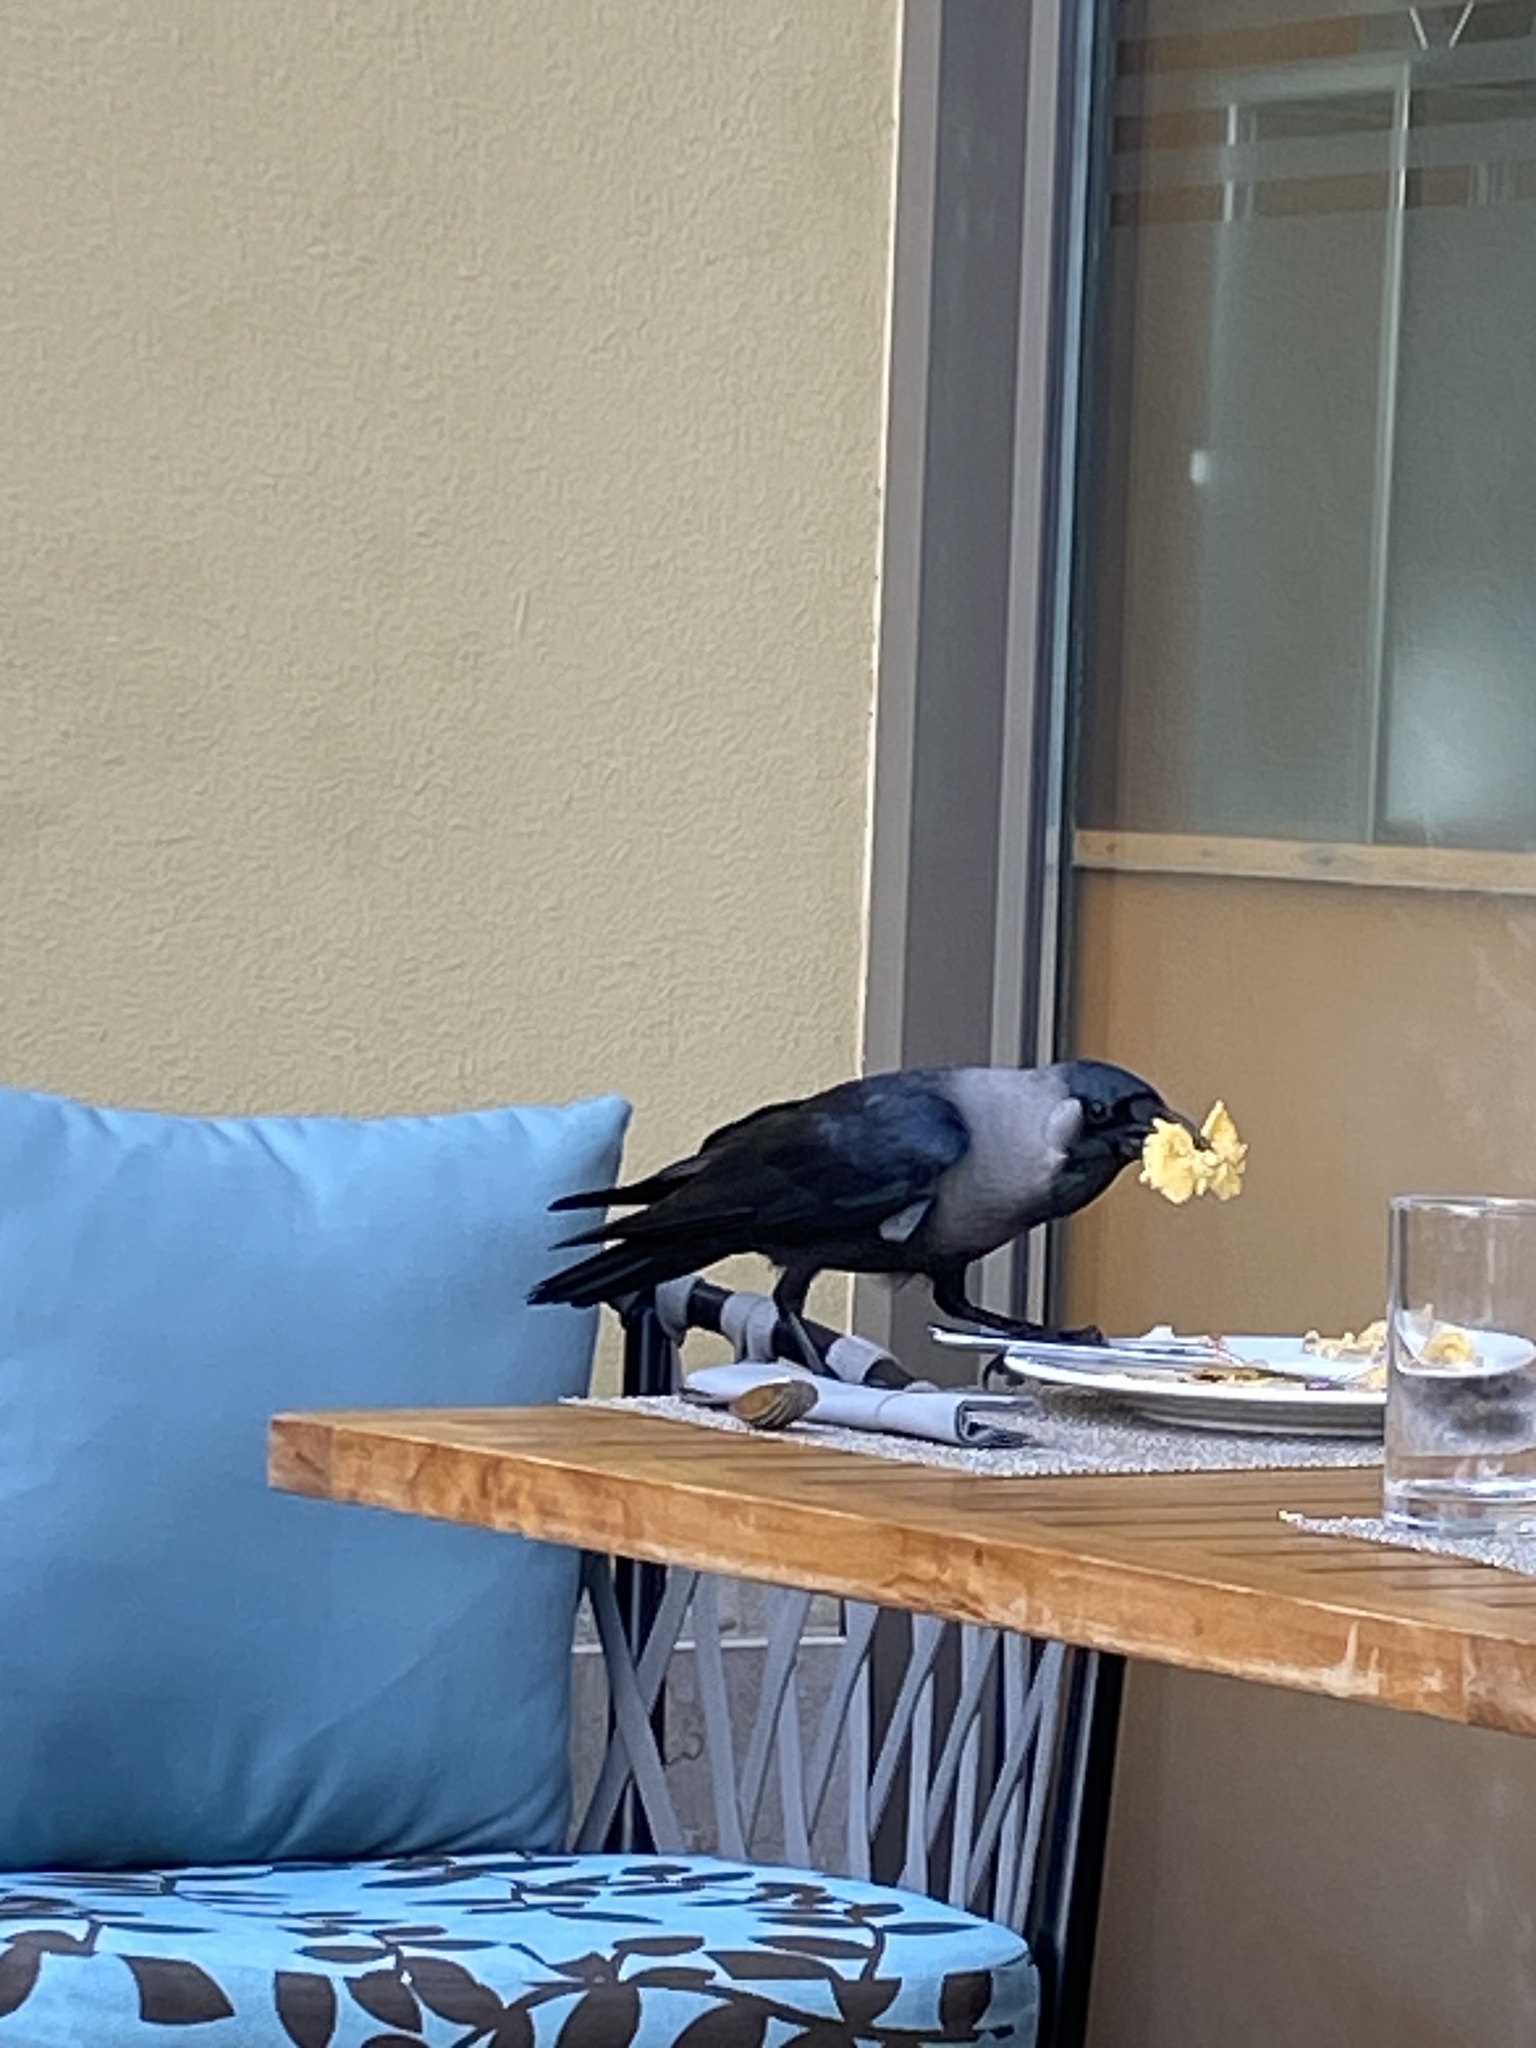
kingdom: Animalia
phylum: Chordata
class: Aves
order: Passeriformes
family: Corvidae
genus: Corvus
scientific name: Corvus splendens
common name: House crow
